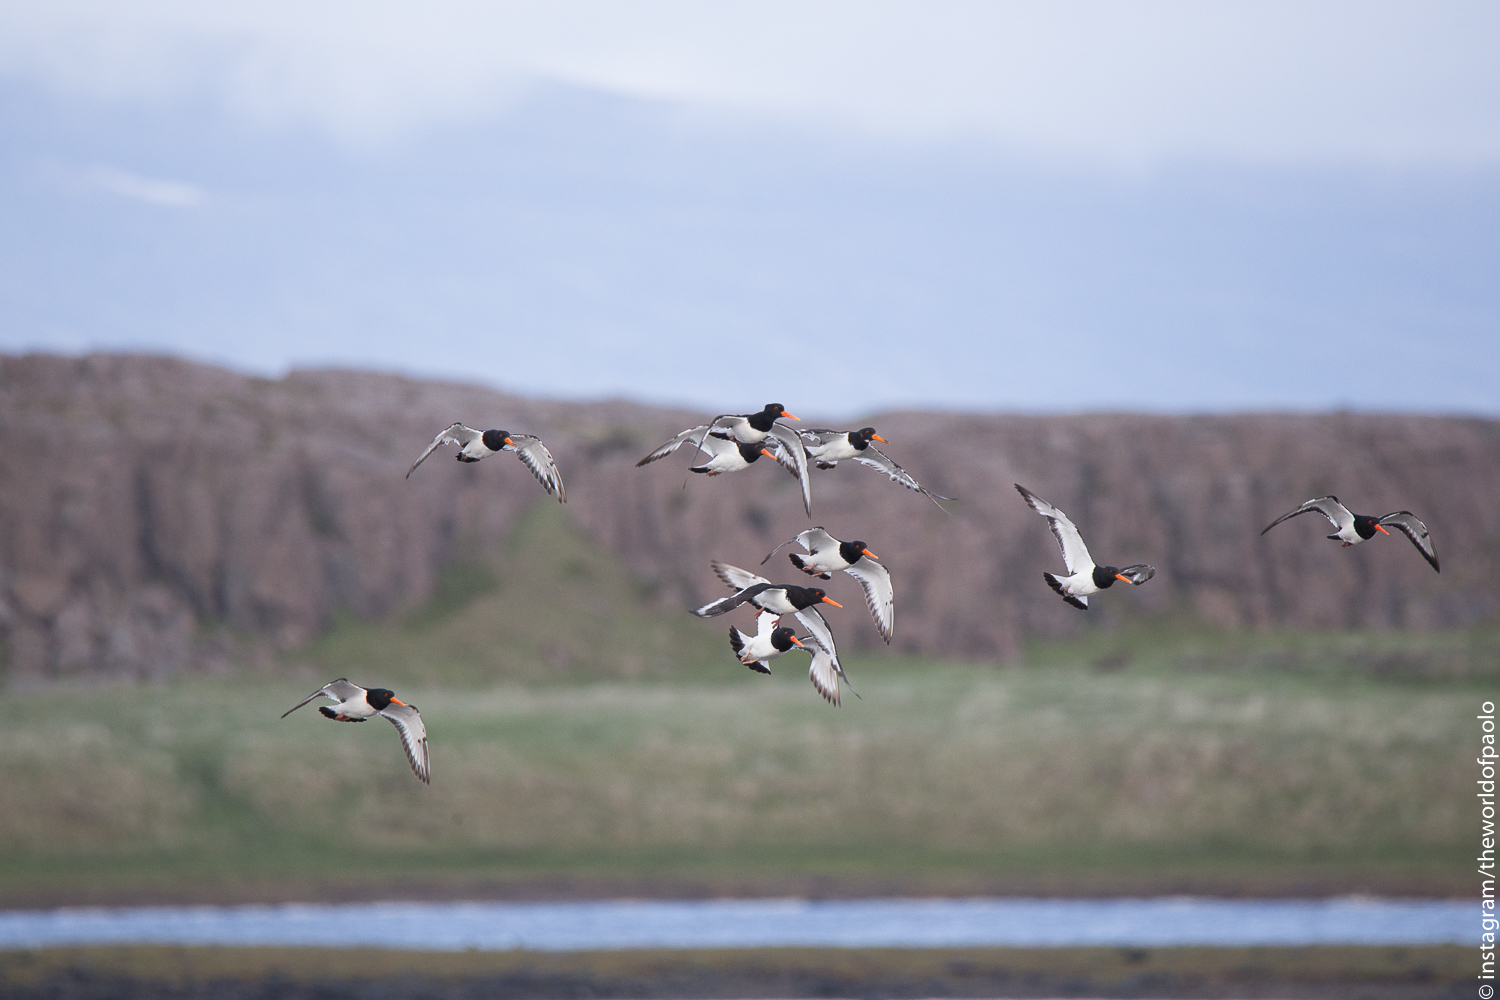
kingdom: Animalia
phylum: Chordata
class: Aves
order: Charadriiformes
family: Haematopodidae
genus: Haematopus
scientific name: Haematopus ostralegus
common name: Eurasian oystercatcher
